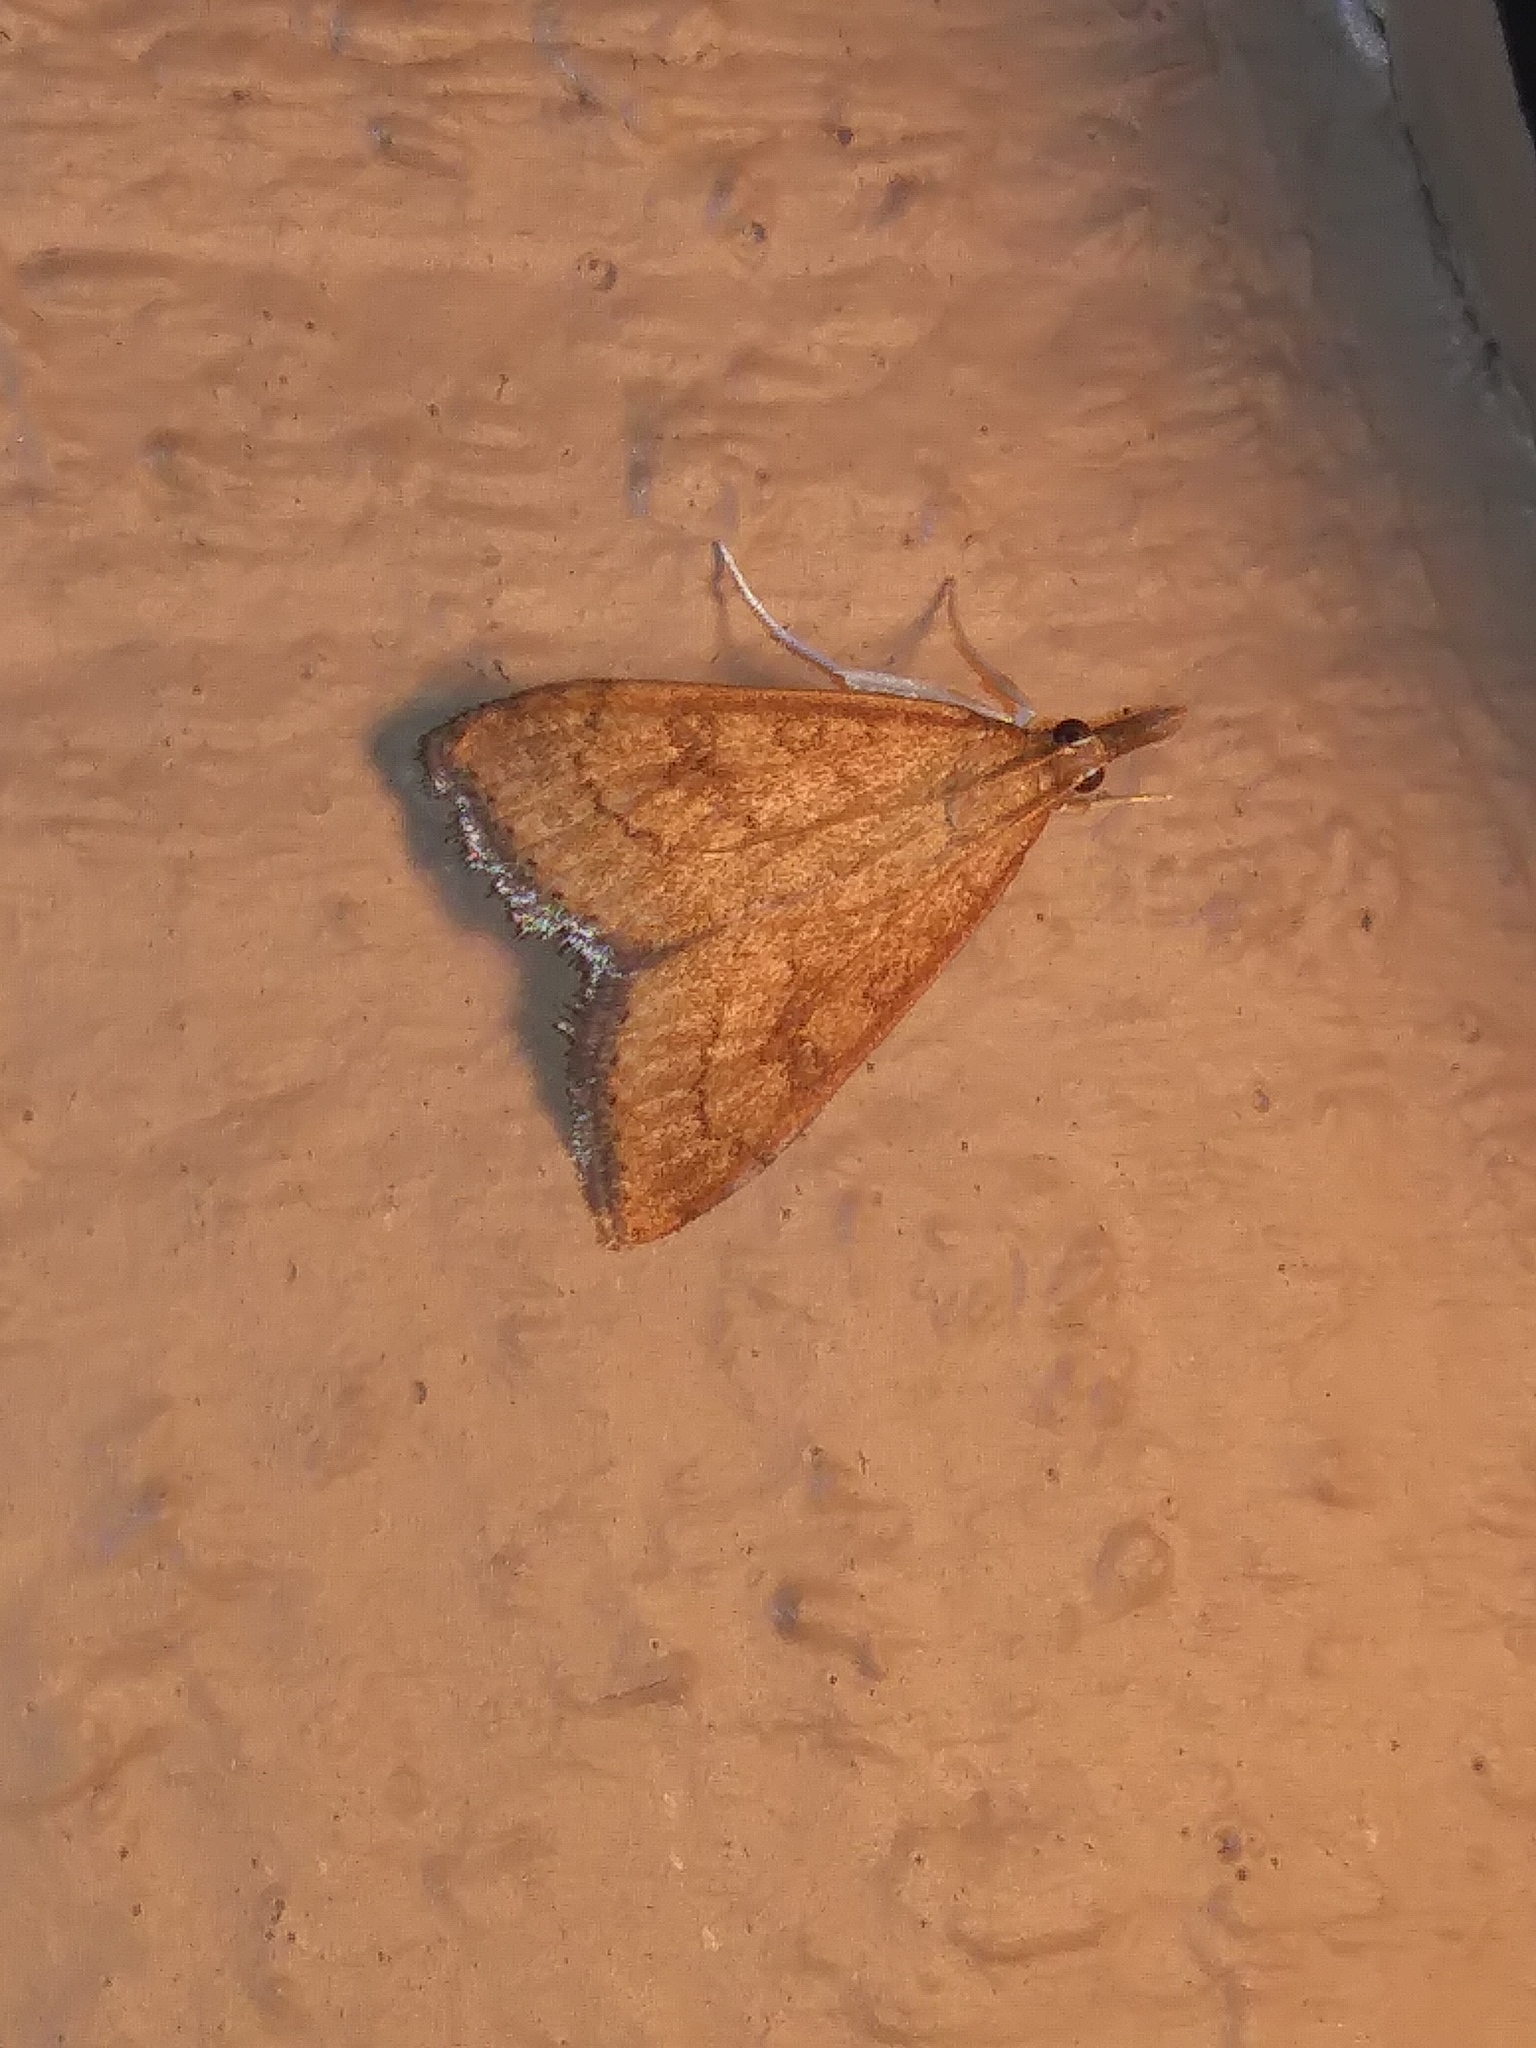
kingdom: Animalia
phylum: Arthropoda
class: Insecta
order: Lepidoptera
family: Crambidae
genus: Udea
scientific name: Udea rubigalis
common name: Celery leaftier moth
